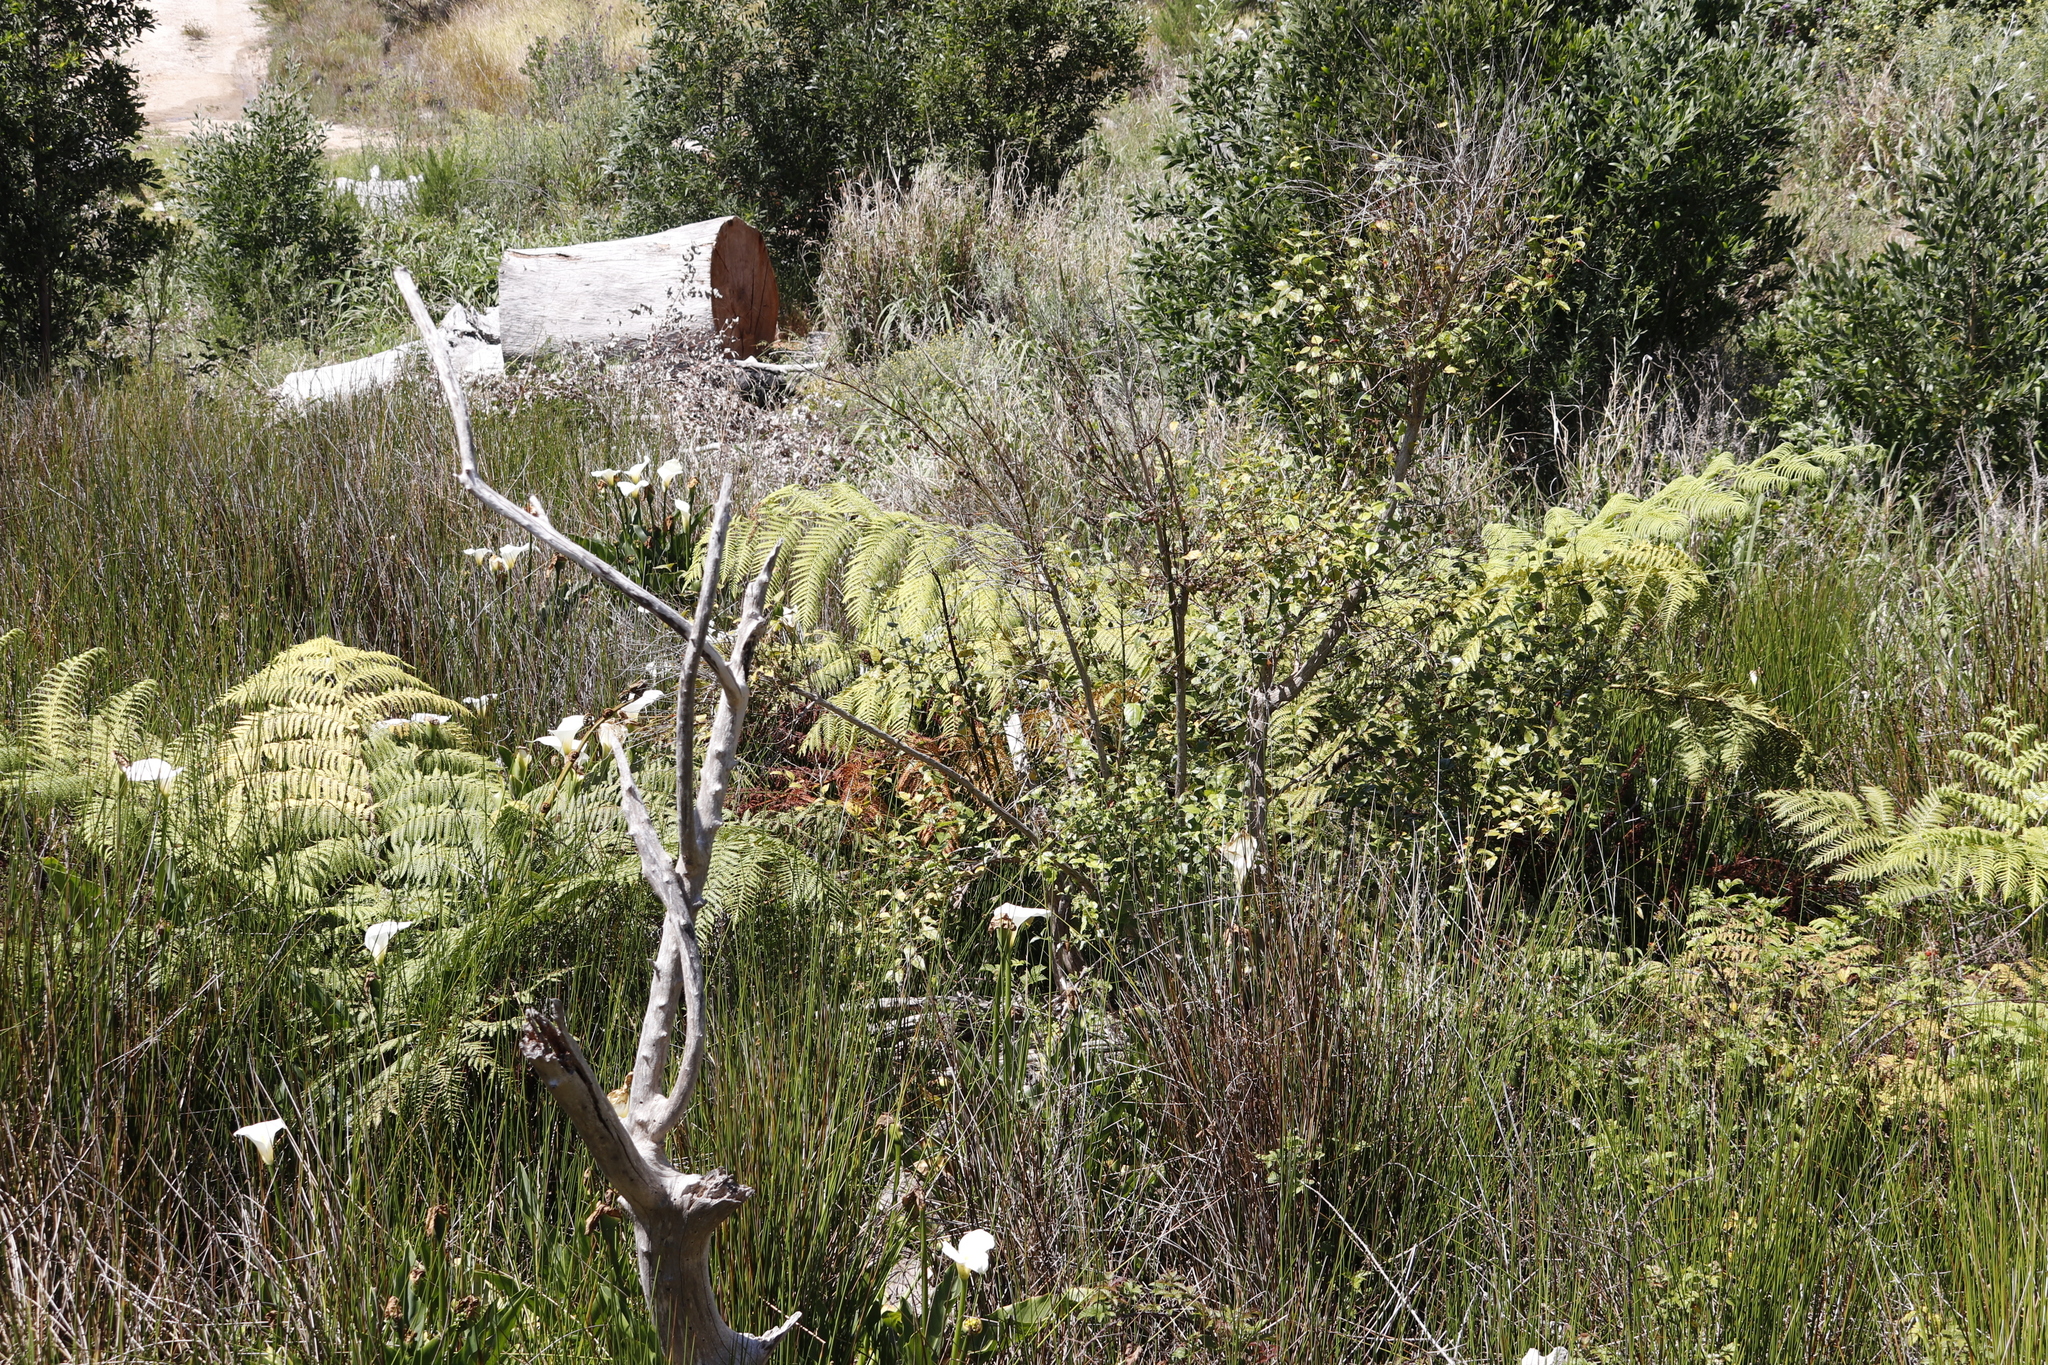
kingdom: Plantae
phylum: Tracheophyta
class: Polypodiopsida
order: Cyatheales
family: Cyatheaceae
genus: Sphaeropteris
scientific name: Sphaeropteris cooperi
